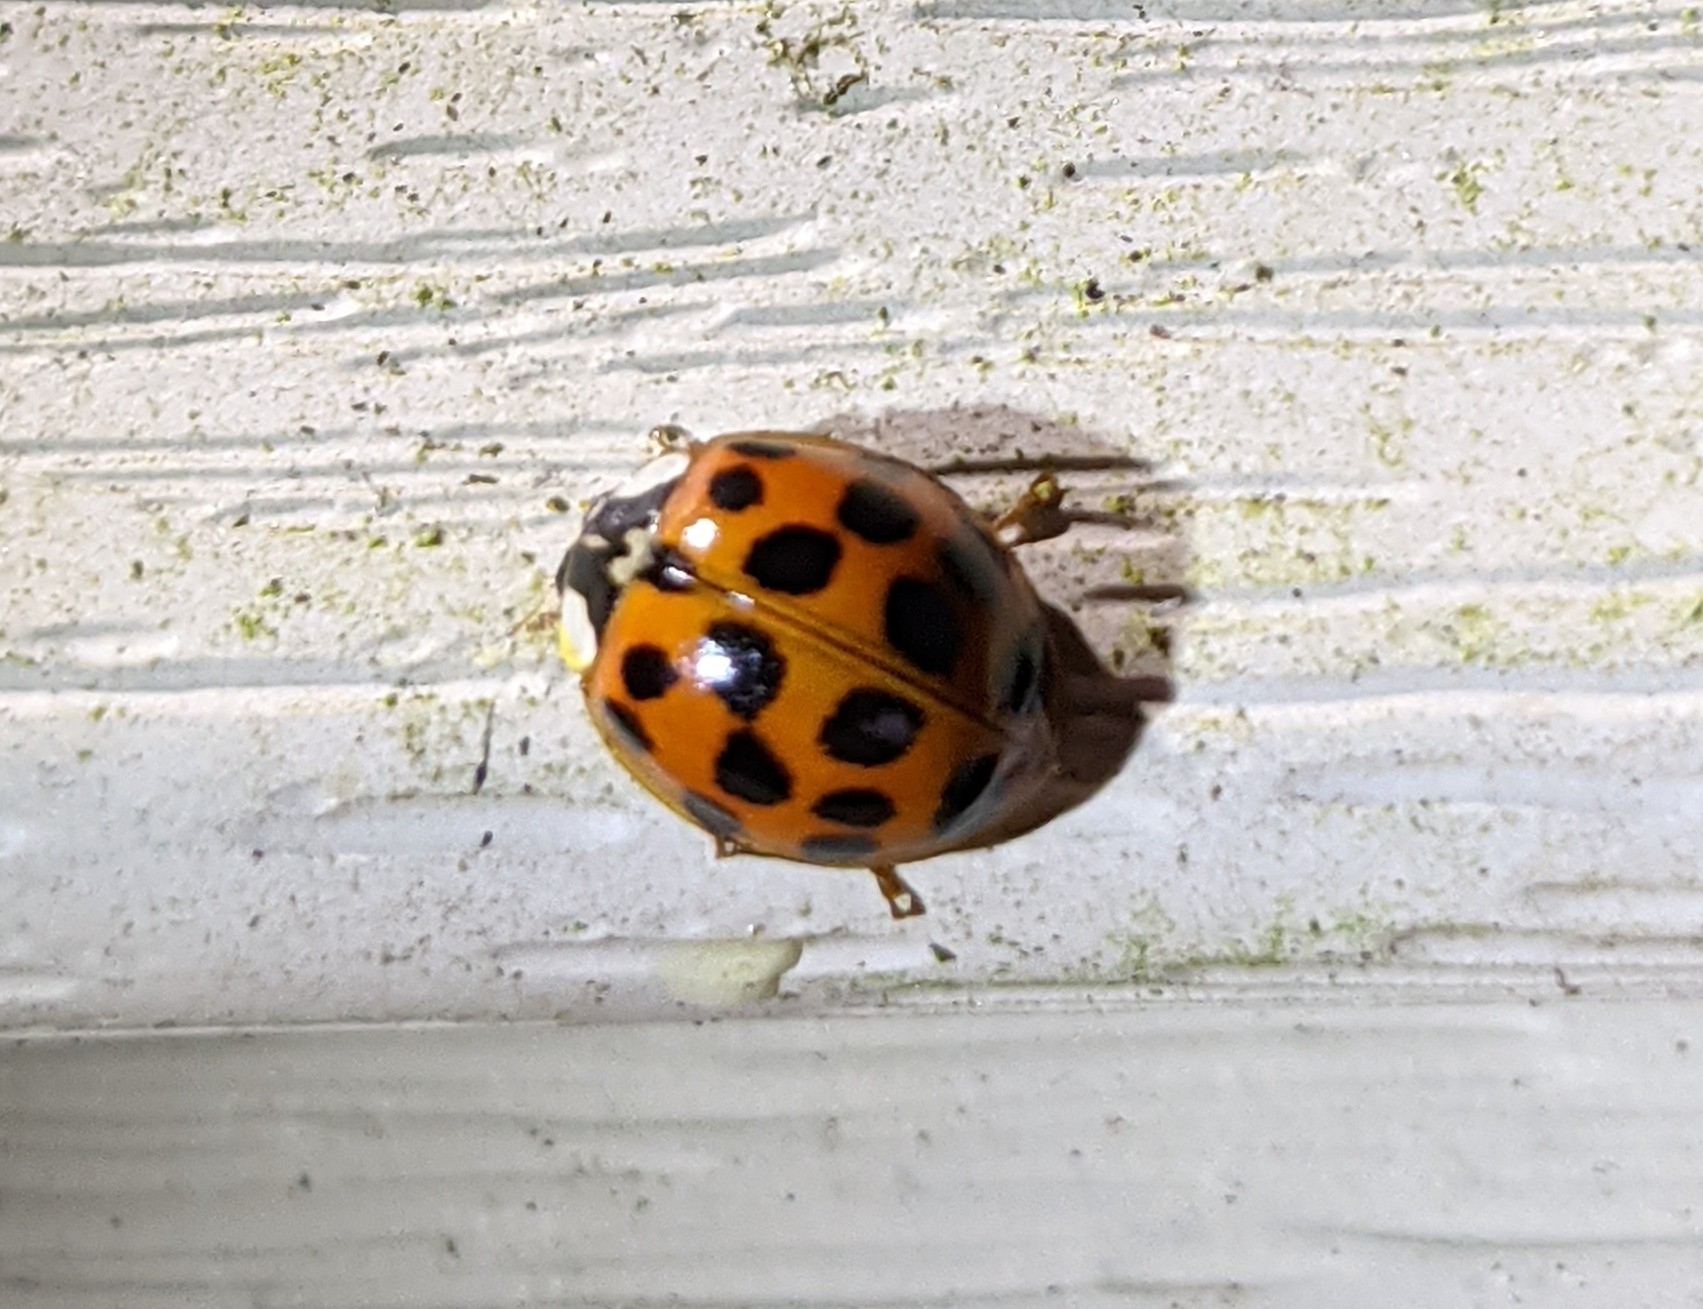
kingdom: Animalia
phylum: Arthropoda
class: Insecta
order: Coleoptera
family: Coccinellidae
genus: Harmonia
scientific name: Harmonia axyridis
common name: Harlequin ladybird
